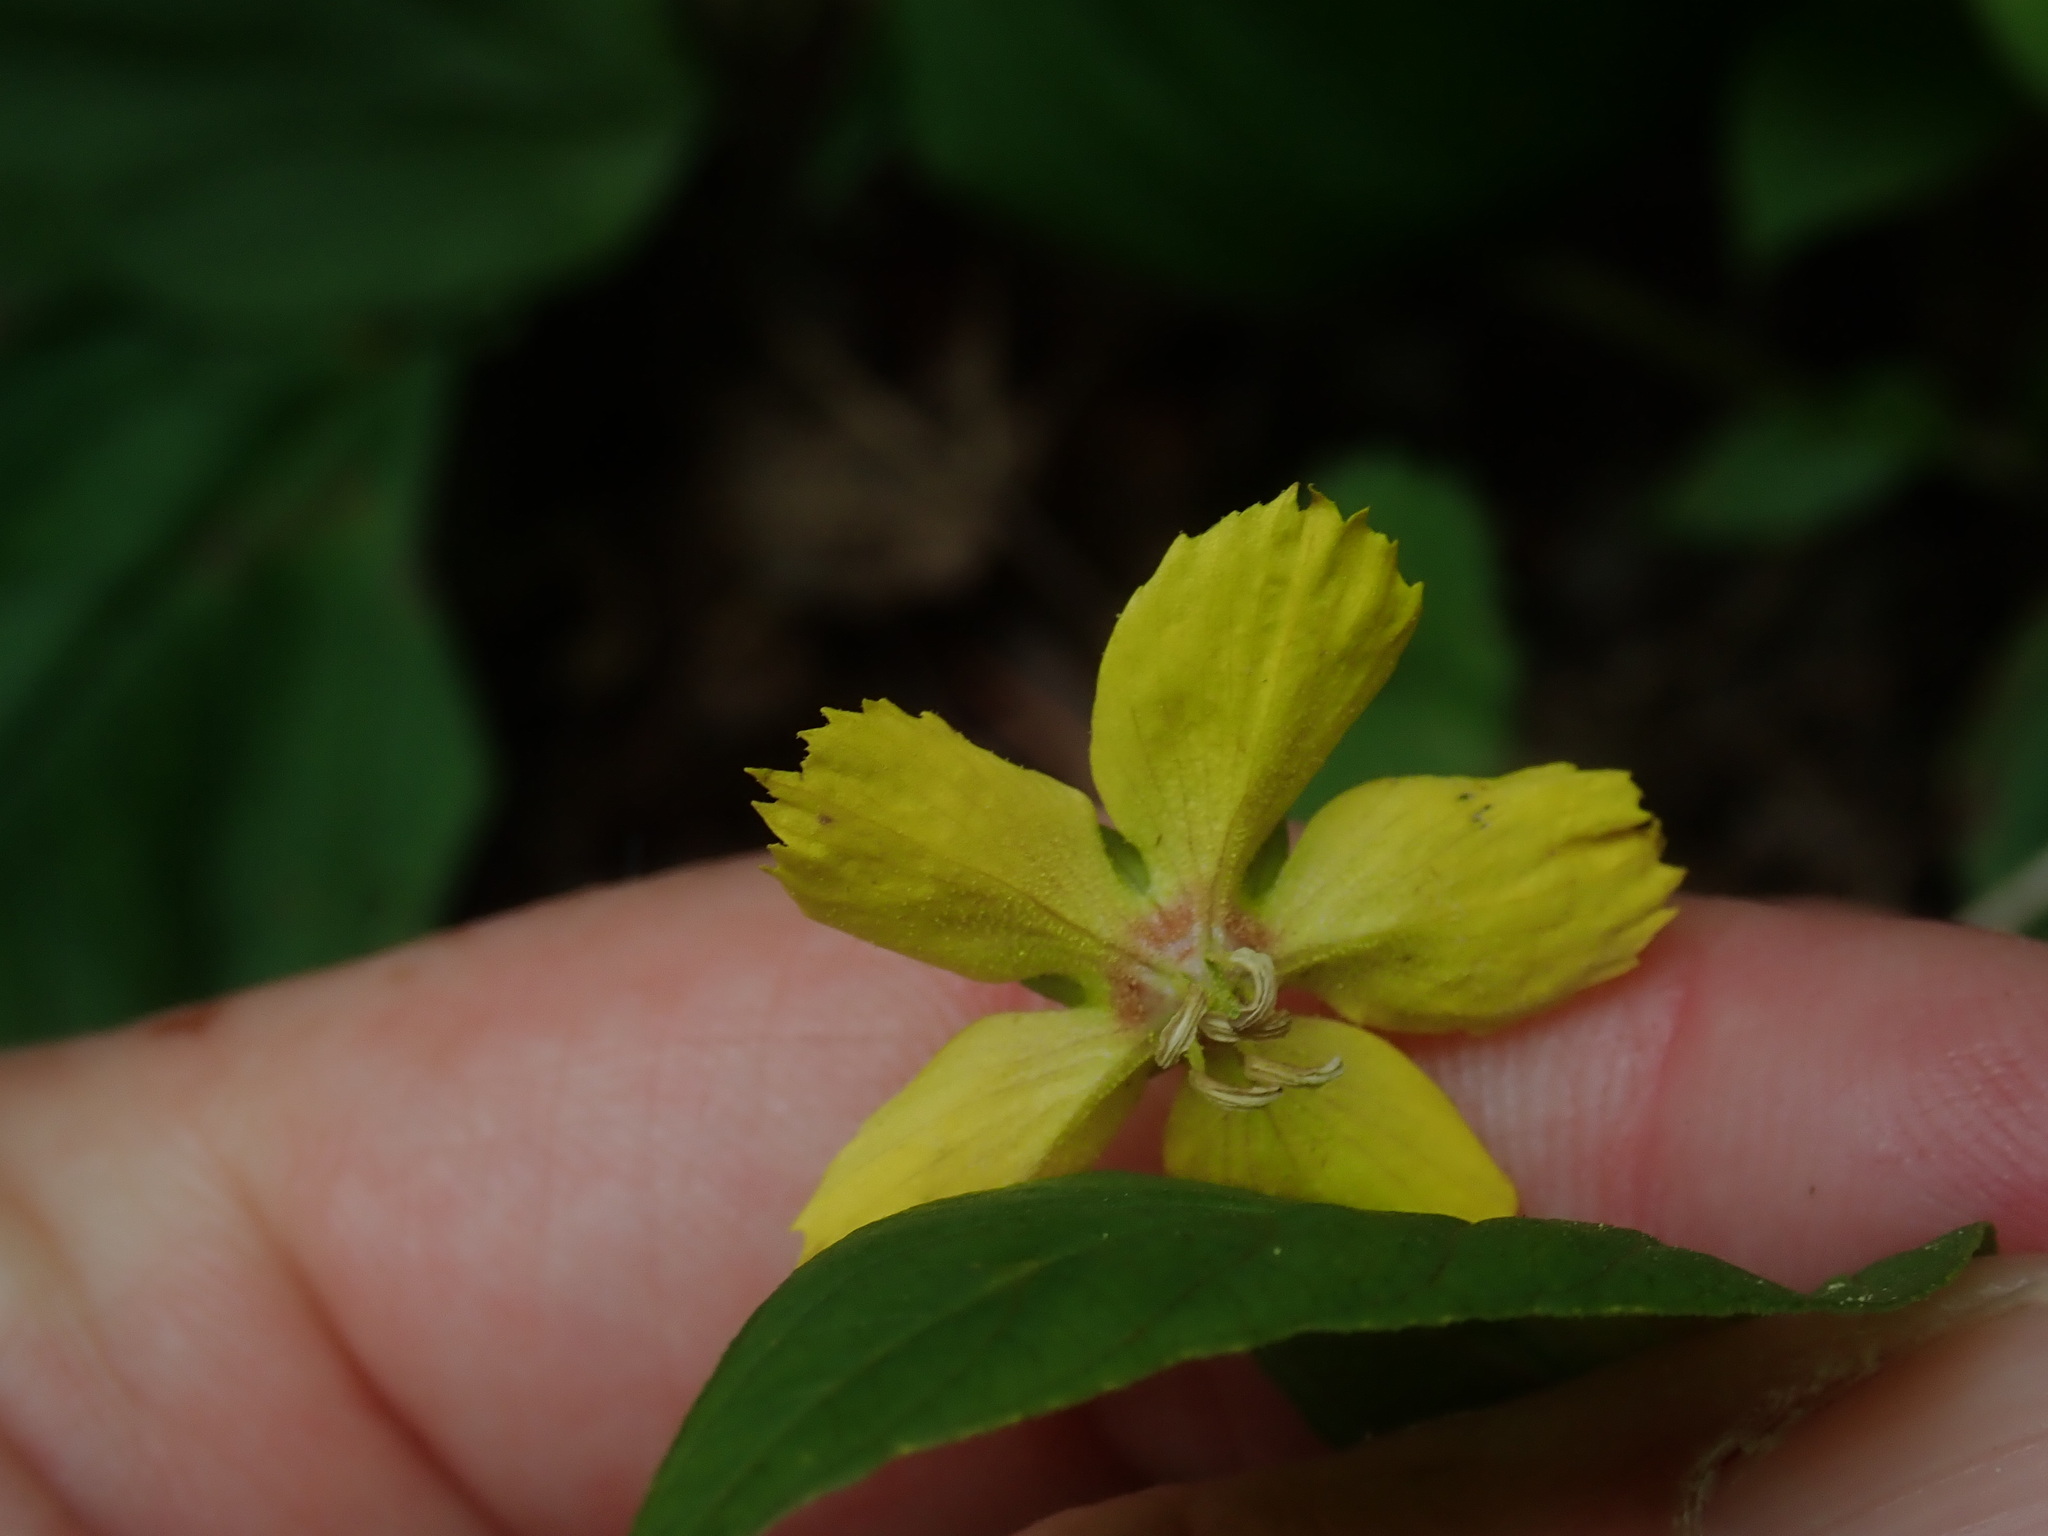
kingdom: Plantae
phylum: Tracheophyta
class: Magnoliopsida
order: Ericales
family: Primulaceae
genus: Lysimachia
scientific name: Lysimachia ciliata
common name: Fringed loosestrife
